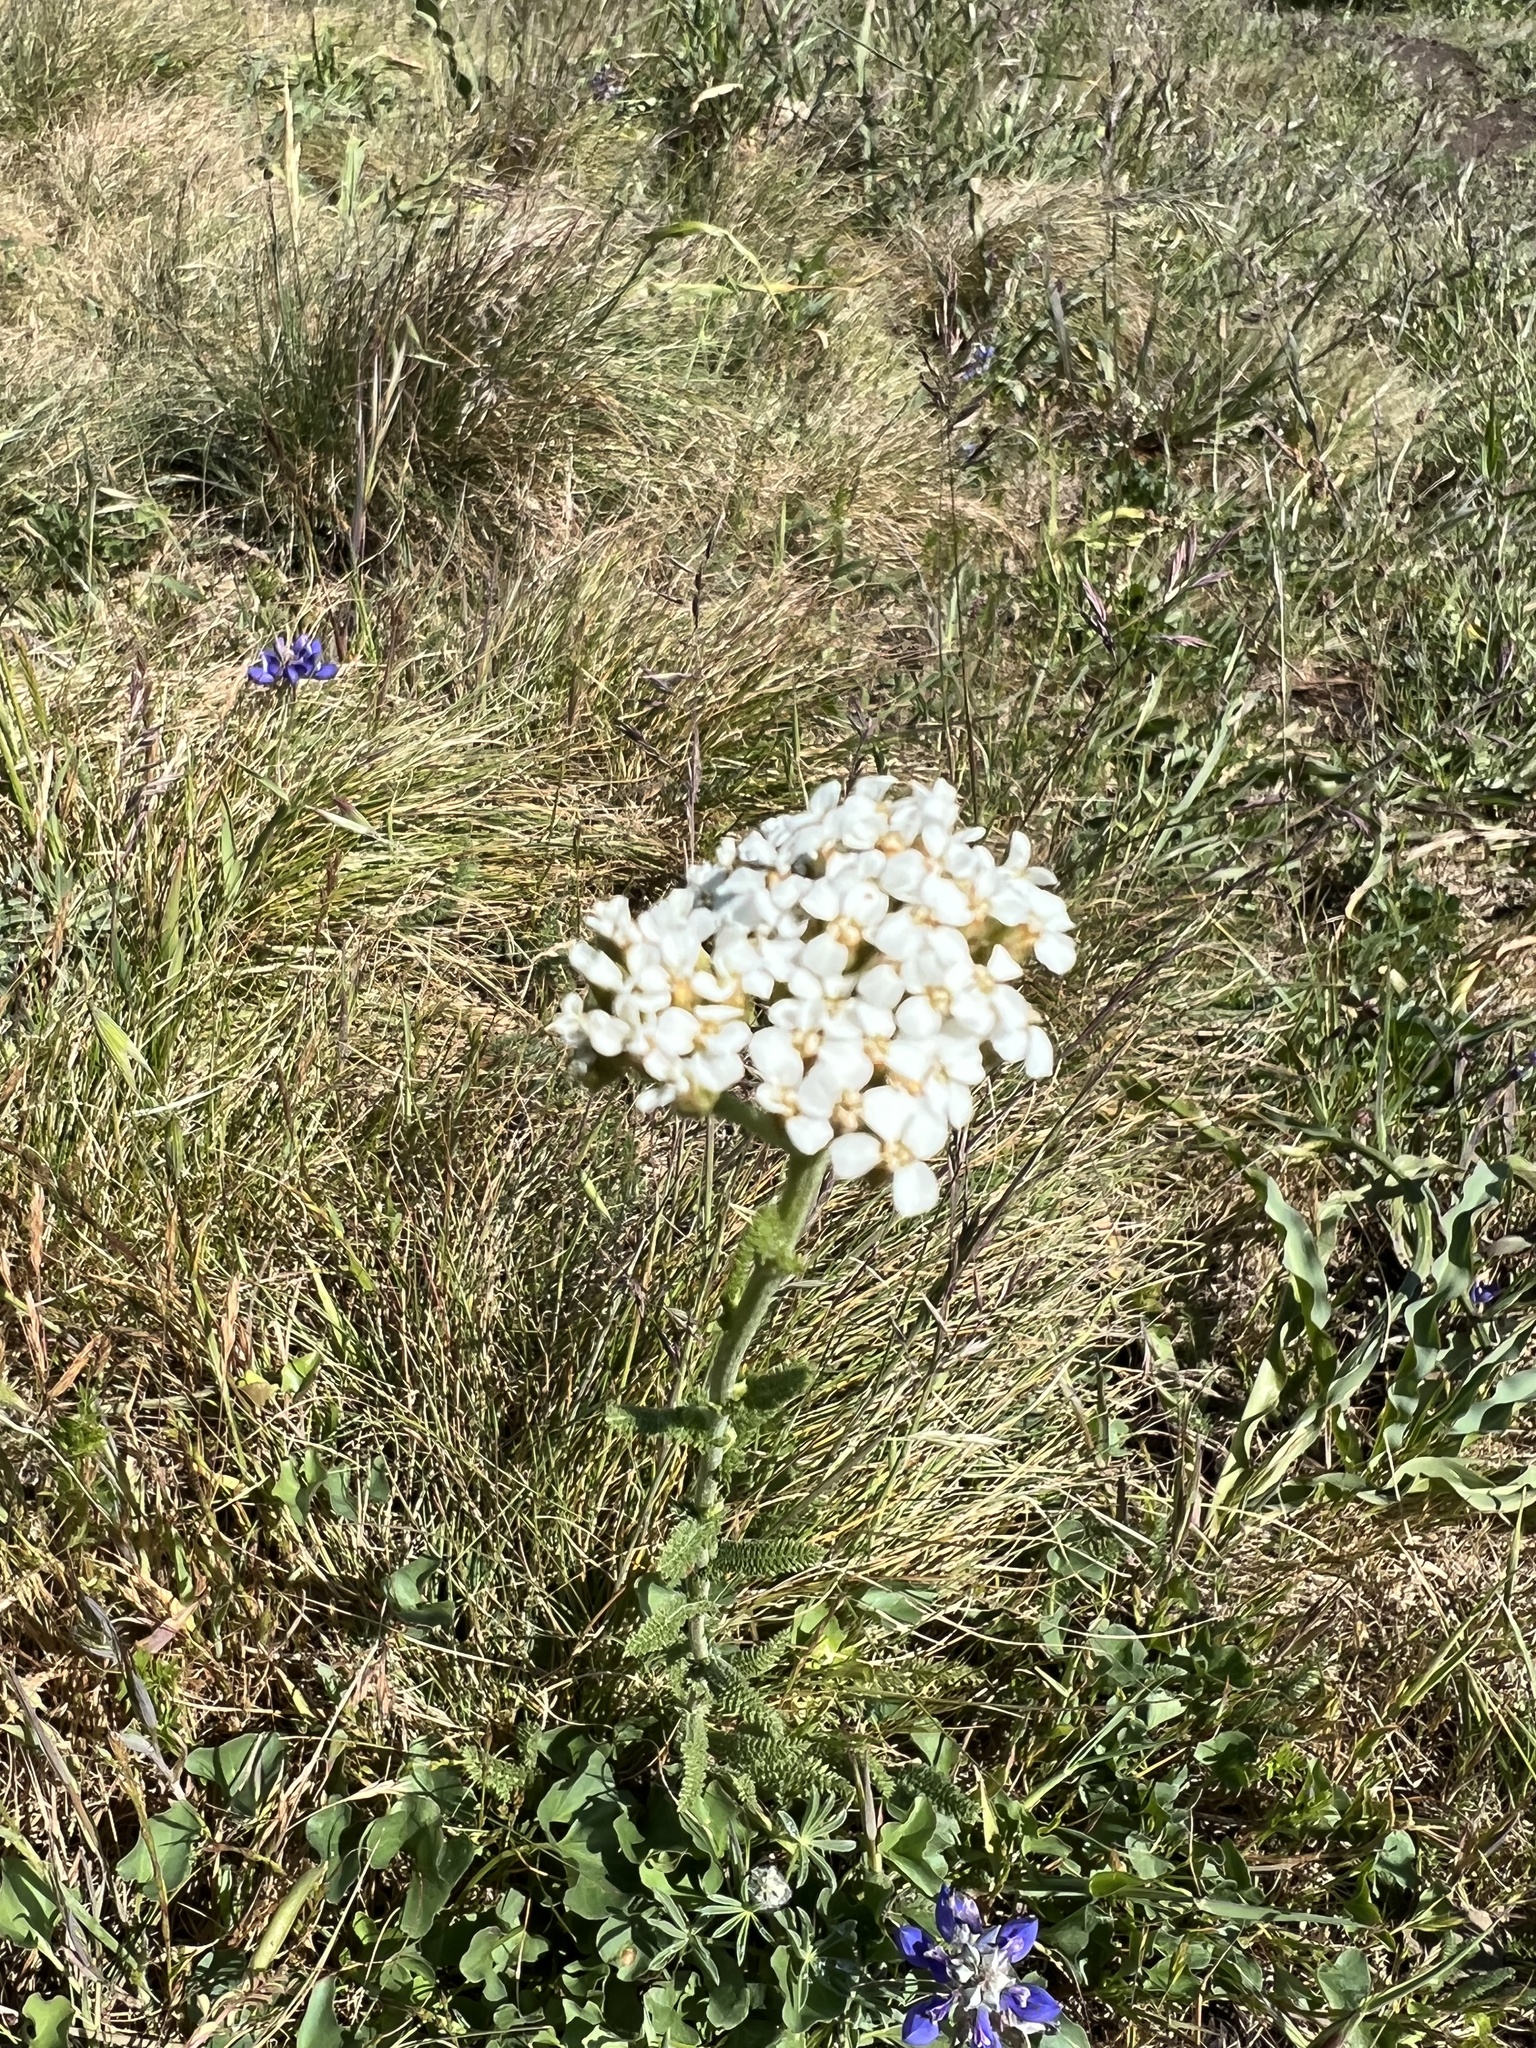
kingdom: Plantae
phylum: Tracheophyta
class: Magnoliopsida
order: Asterales
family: Asteraceae
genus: Achillea
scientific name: Achillea millefolium
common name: Yarrow
